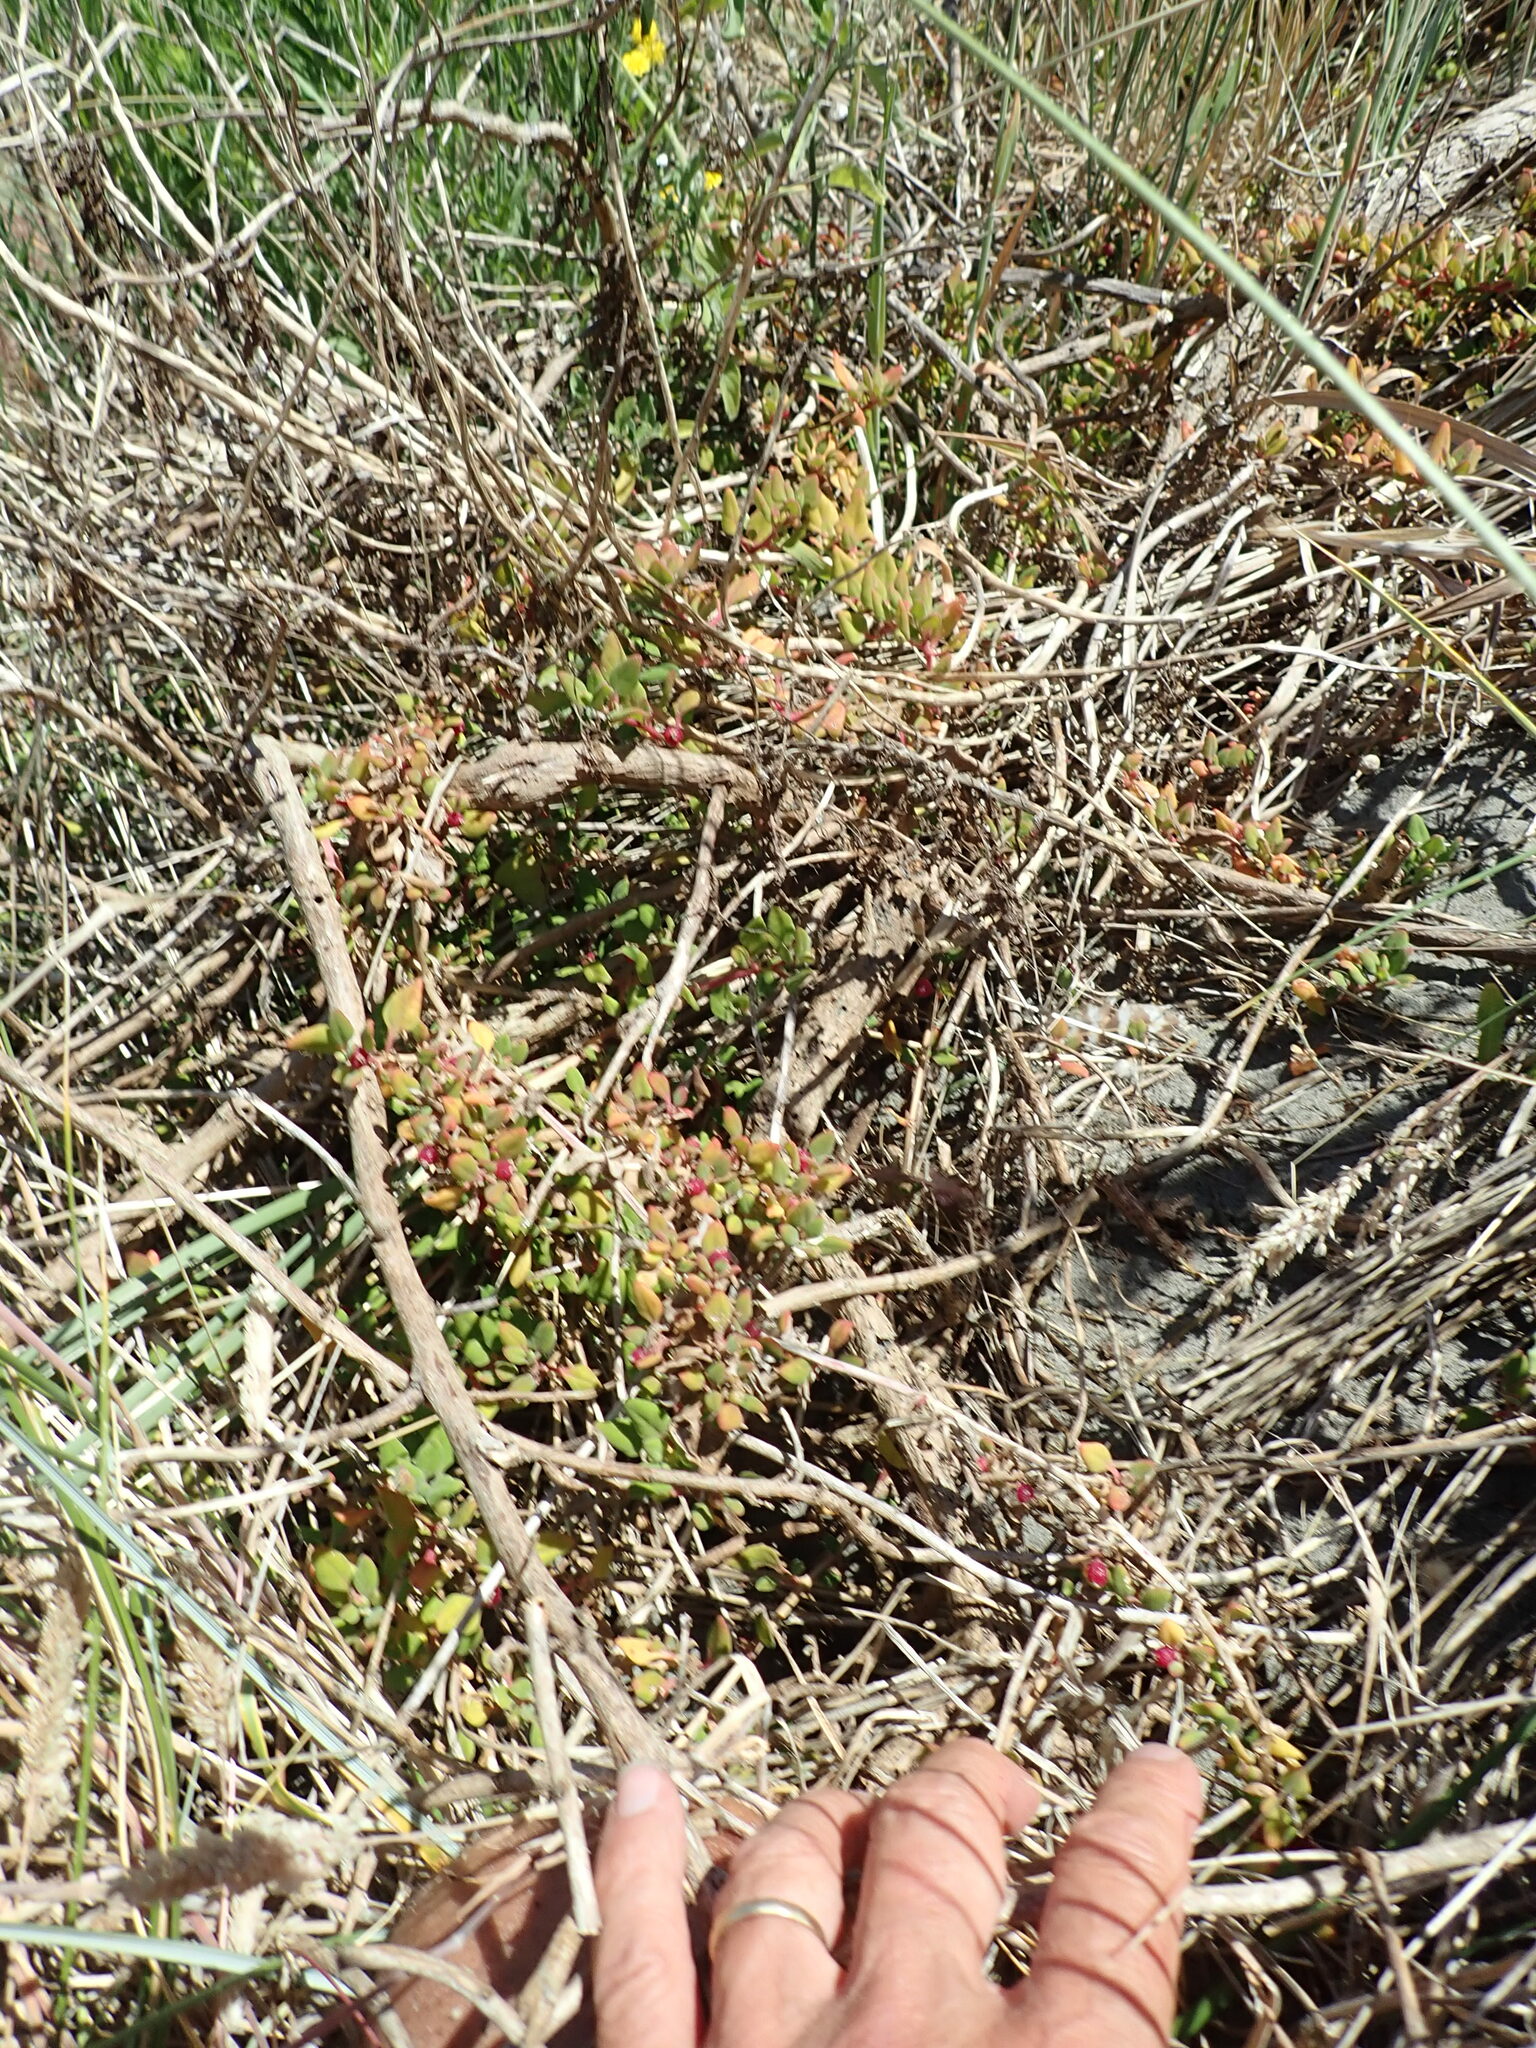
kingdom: Plantae
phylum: Tracheophyta
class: Magnoliopsida
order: Caryophyllales
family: Aizoaceae
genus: Tetragonia
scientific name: Tetragonia implexicoma
